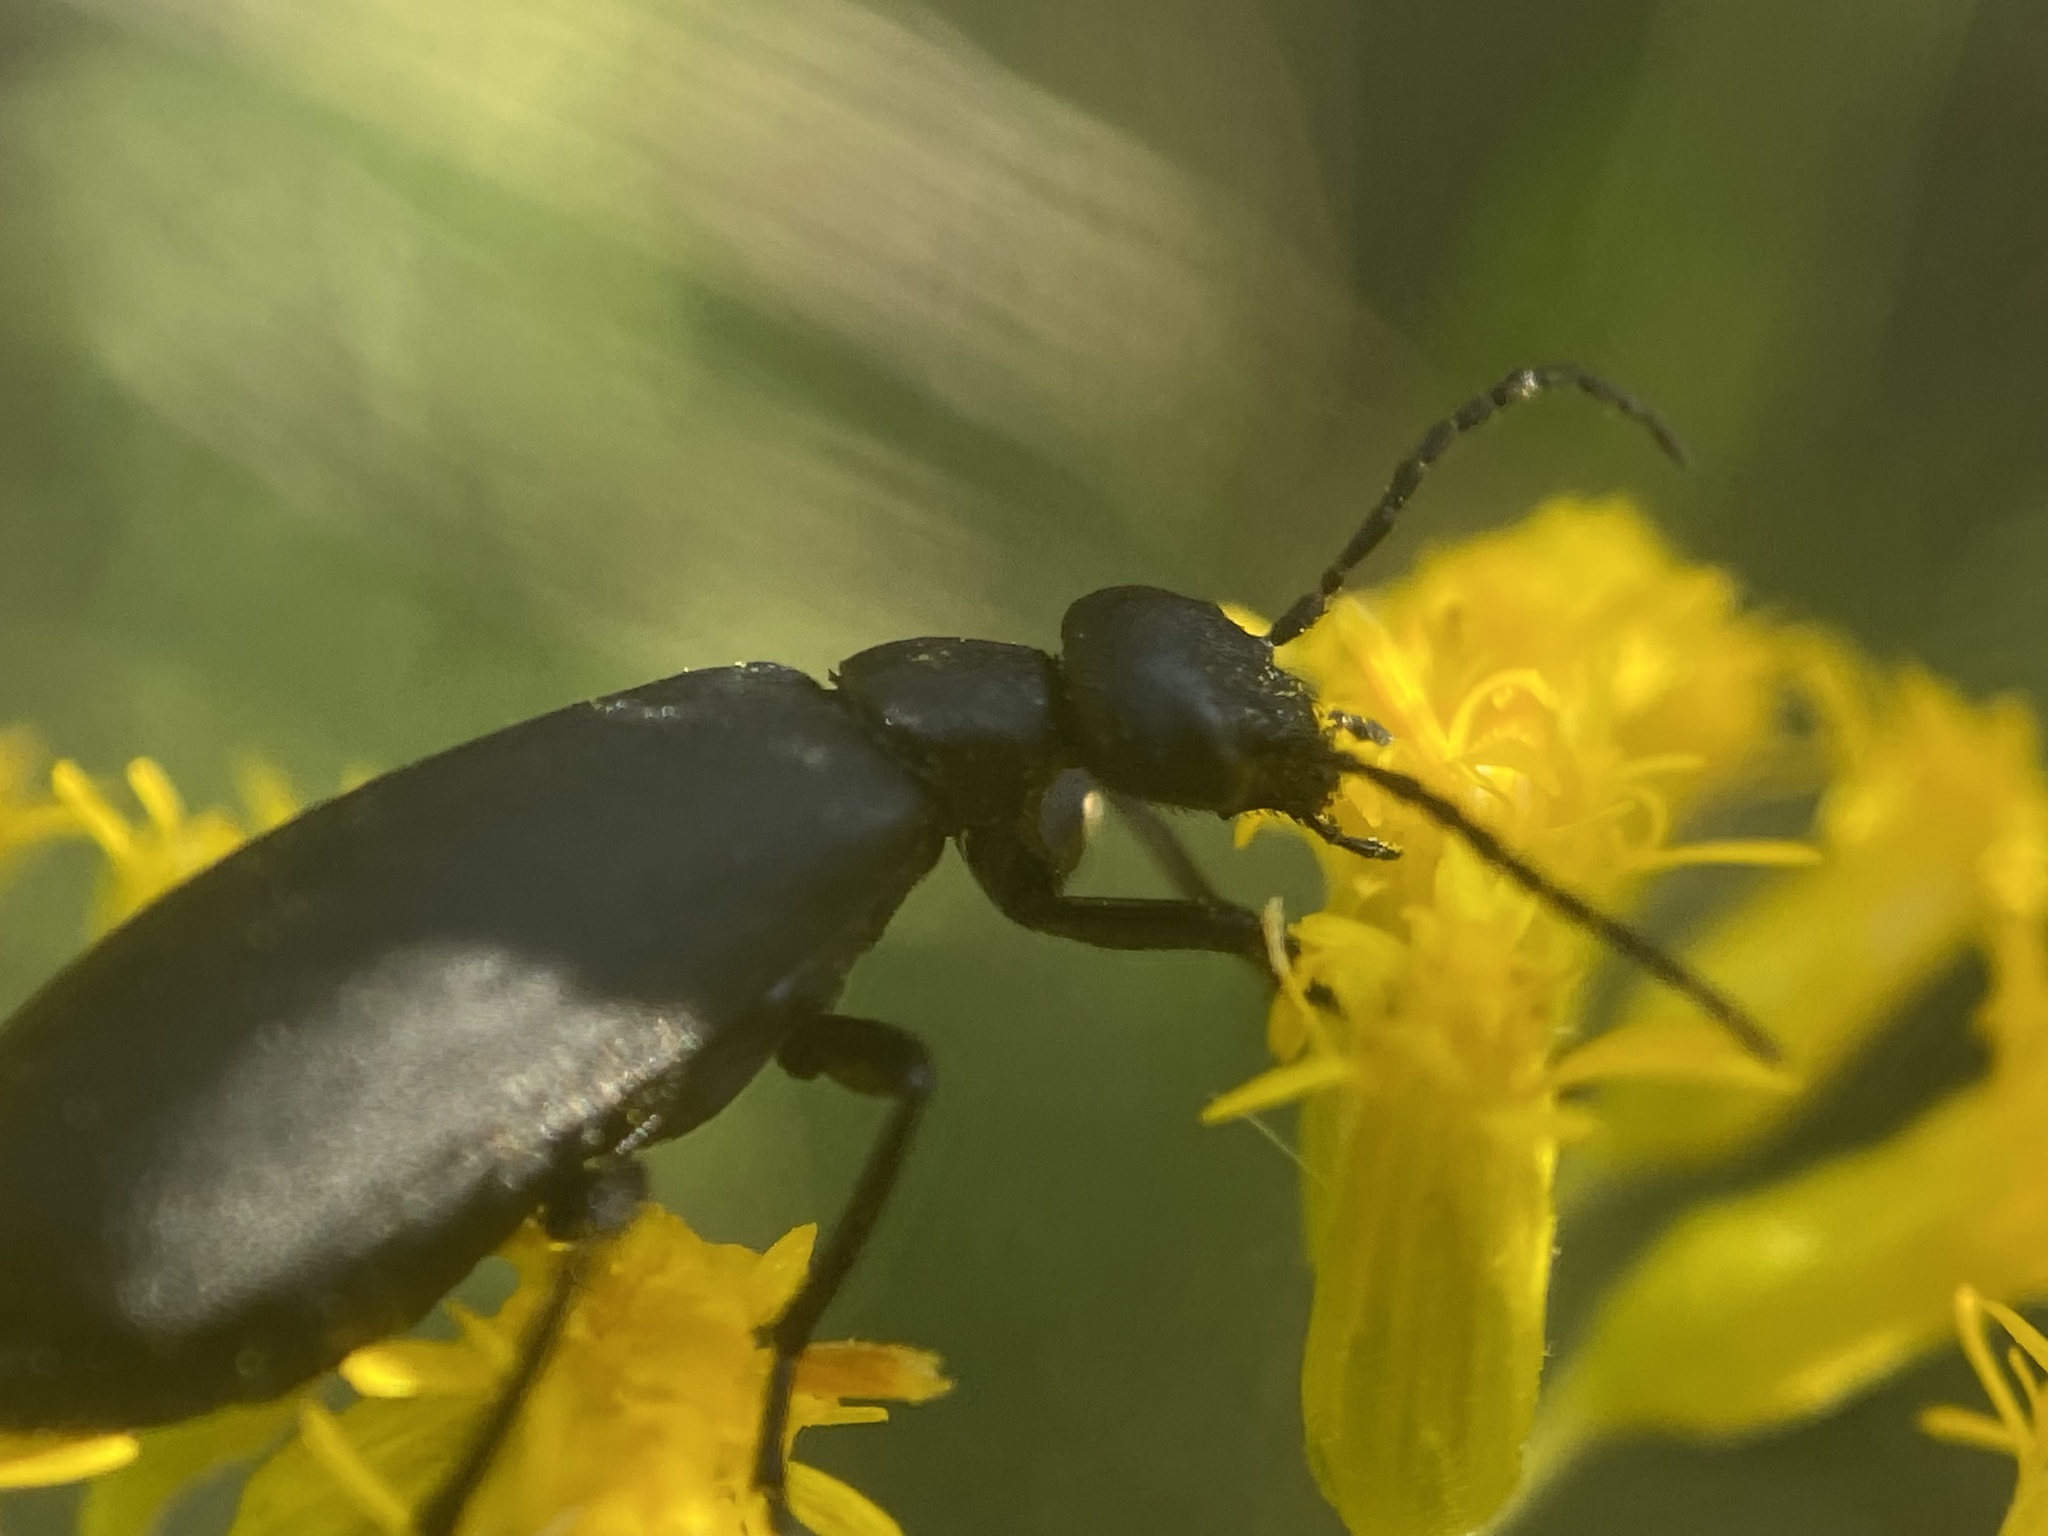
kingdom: Animalia
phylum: Arthropoda
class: Insecta
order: Coleoptera
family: Meloidae
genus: Epicauta
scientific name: Epicauta pensylvanica
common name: Black blister beetle
